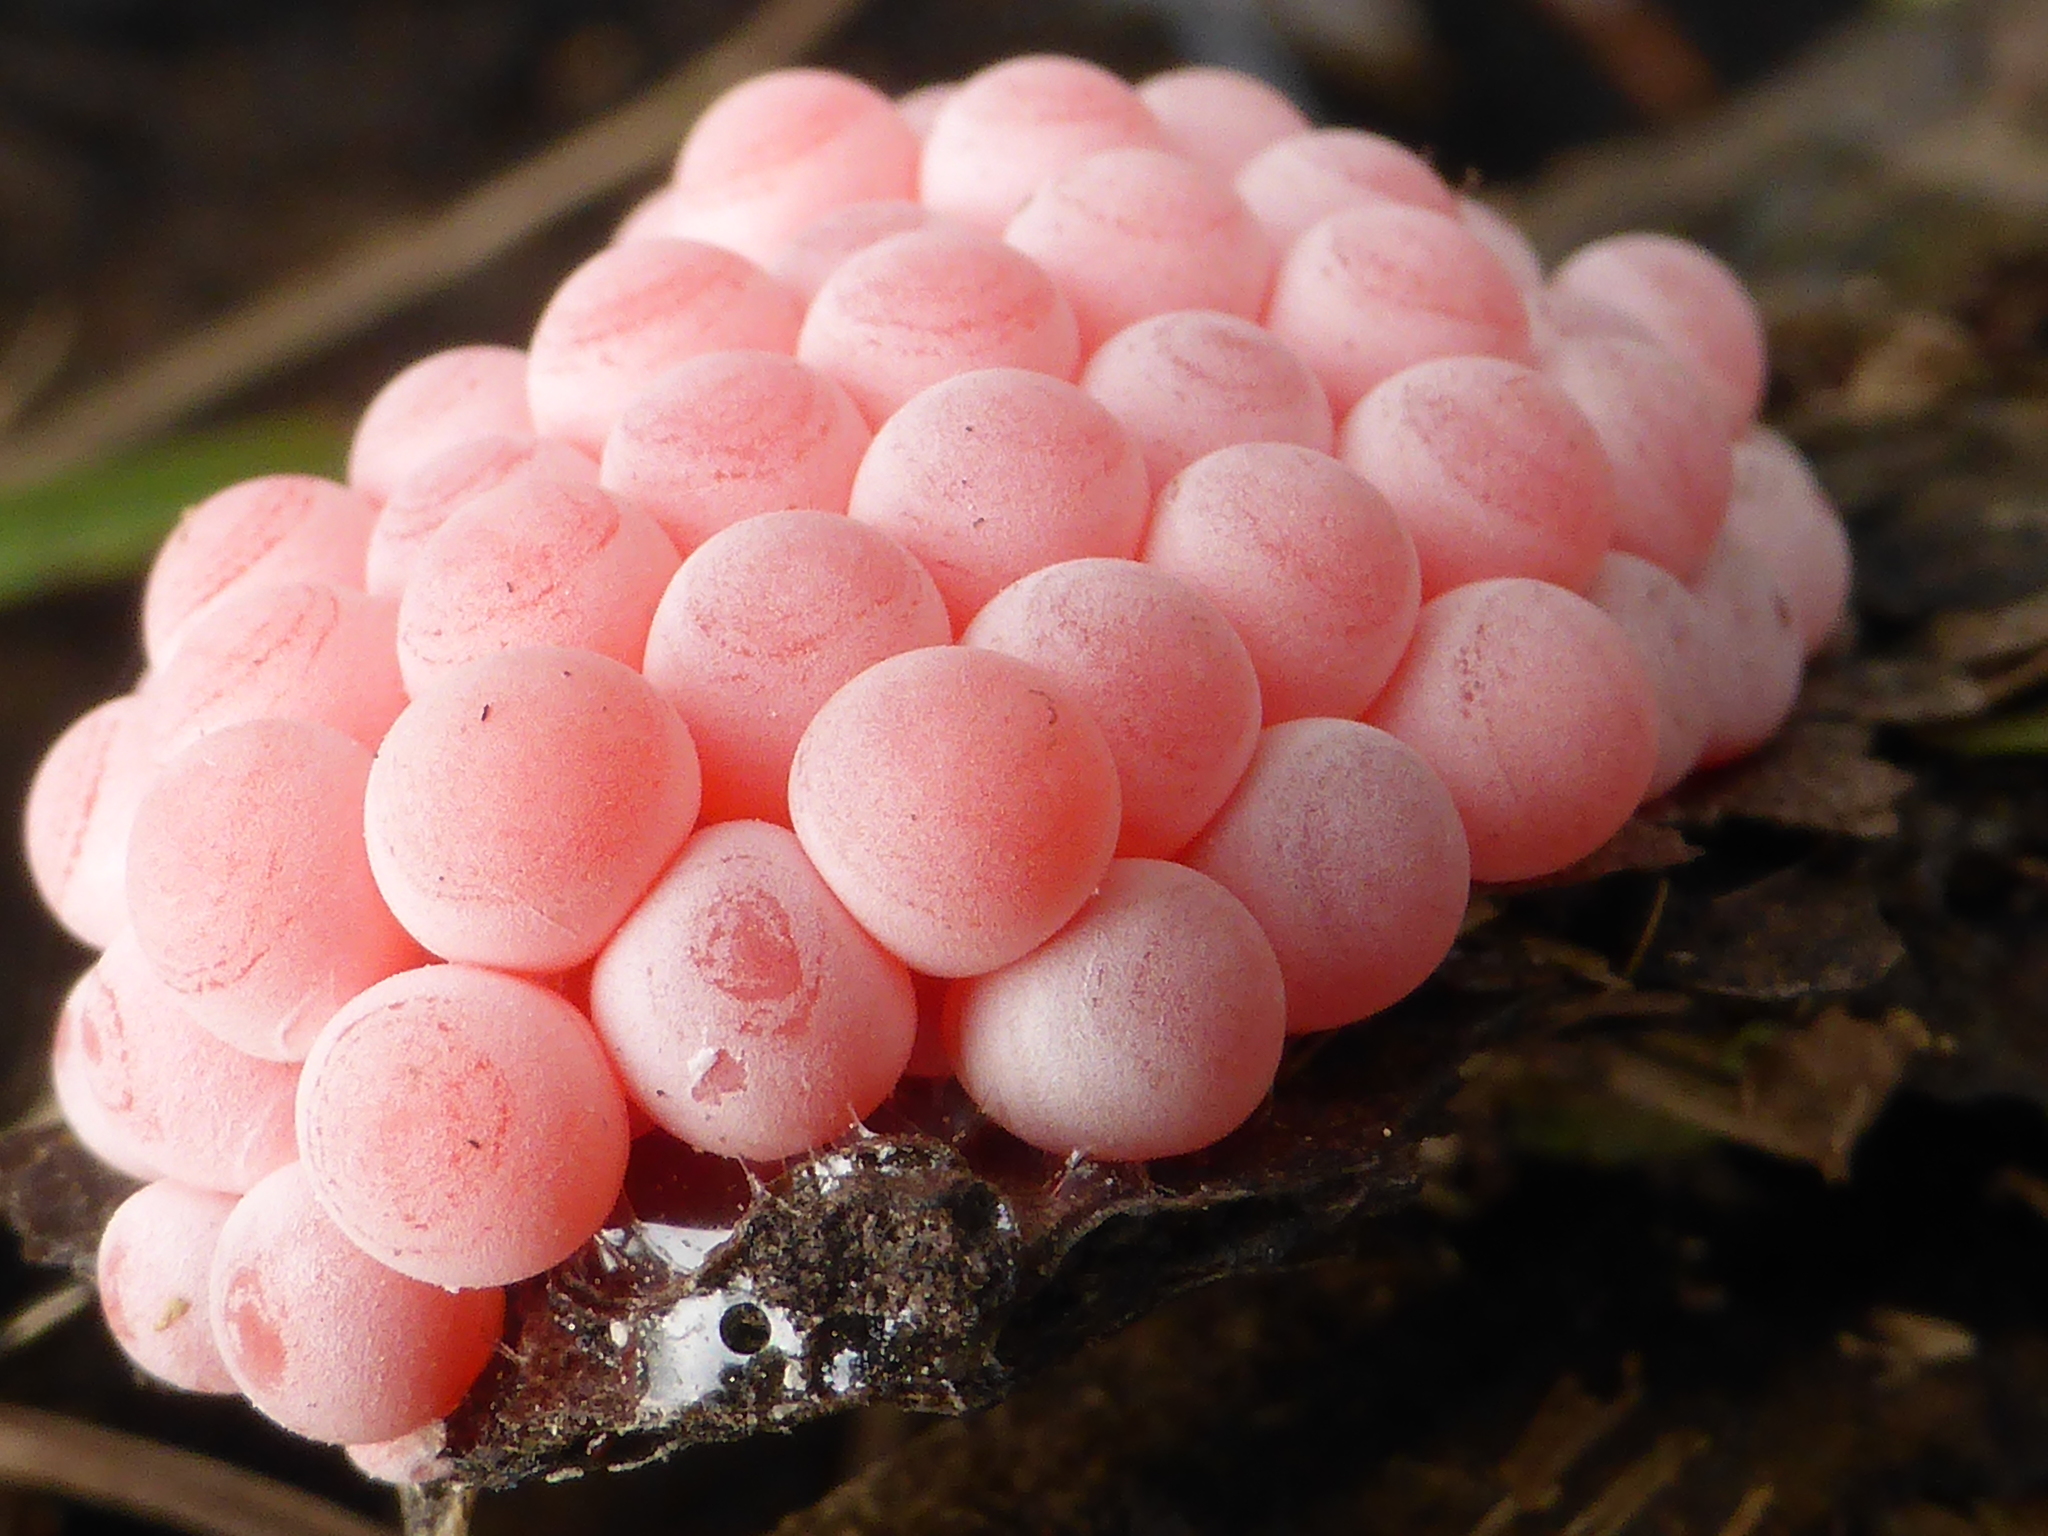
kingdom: Animalia
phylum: Mollusca
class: Gastropoda
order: Architaenioglossa
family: Ampullariidae
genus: Pomacea
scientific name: Pomacea canaliculata
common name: Channeled applesnail
